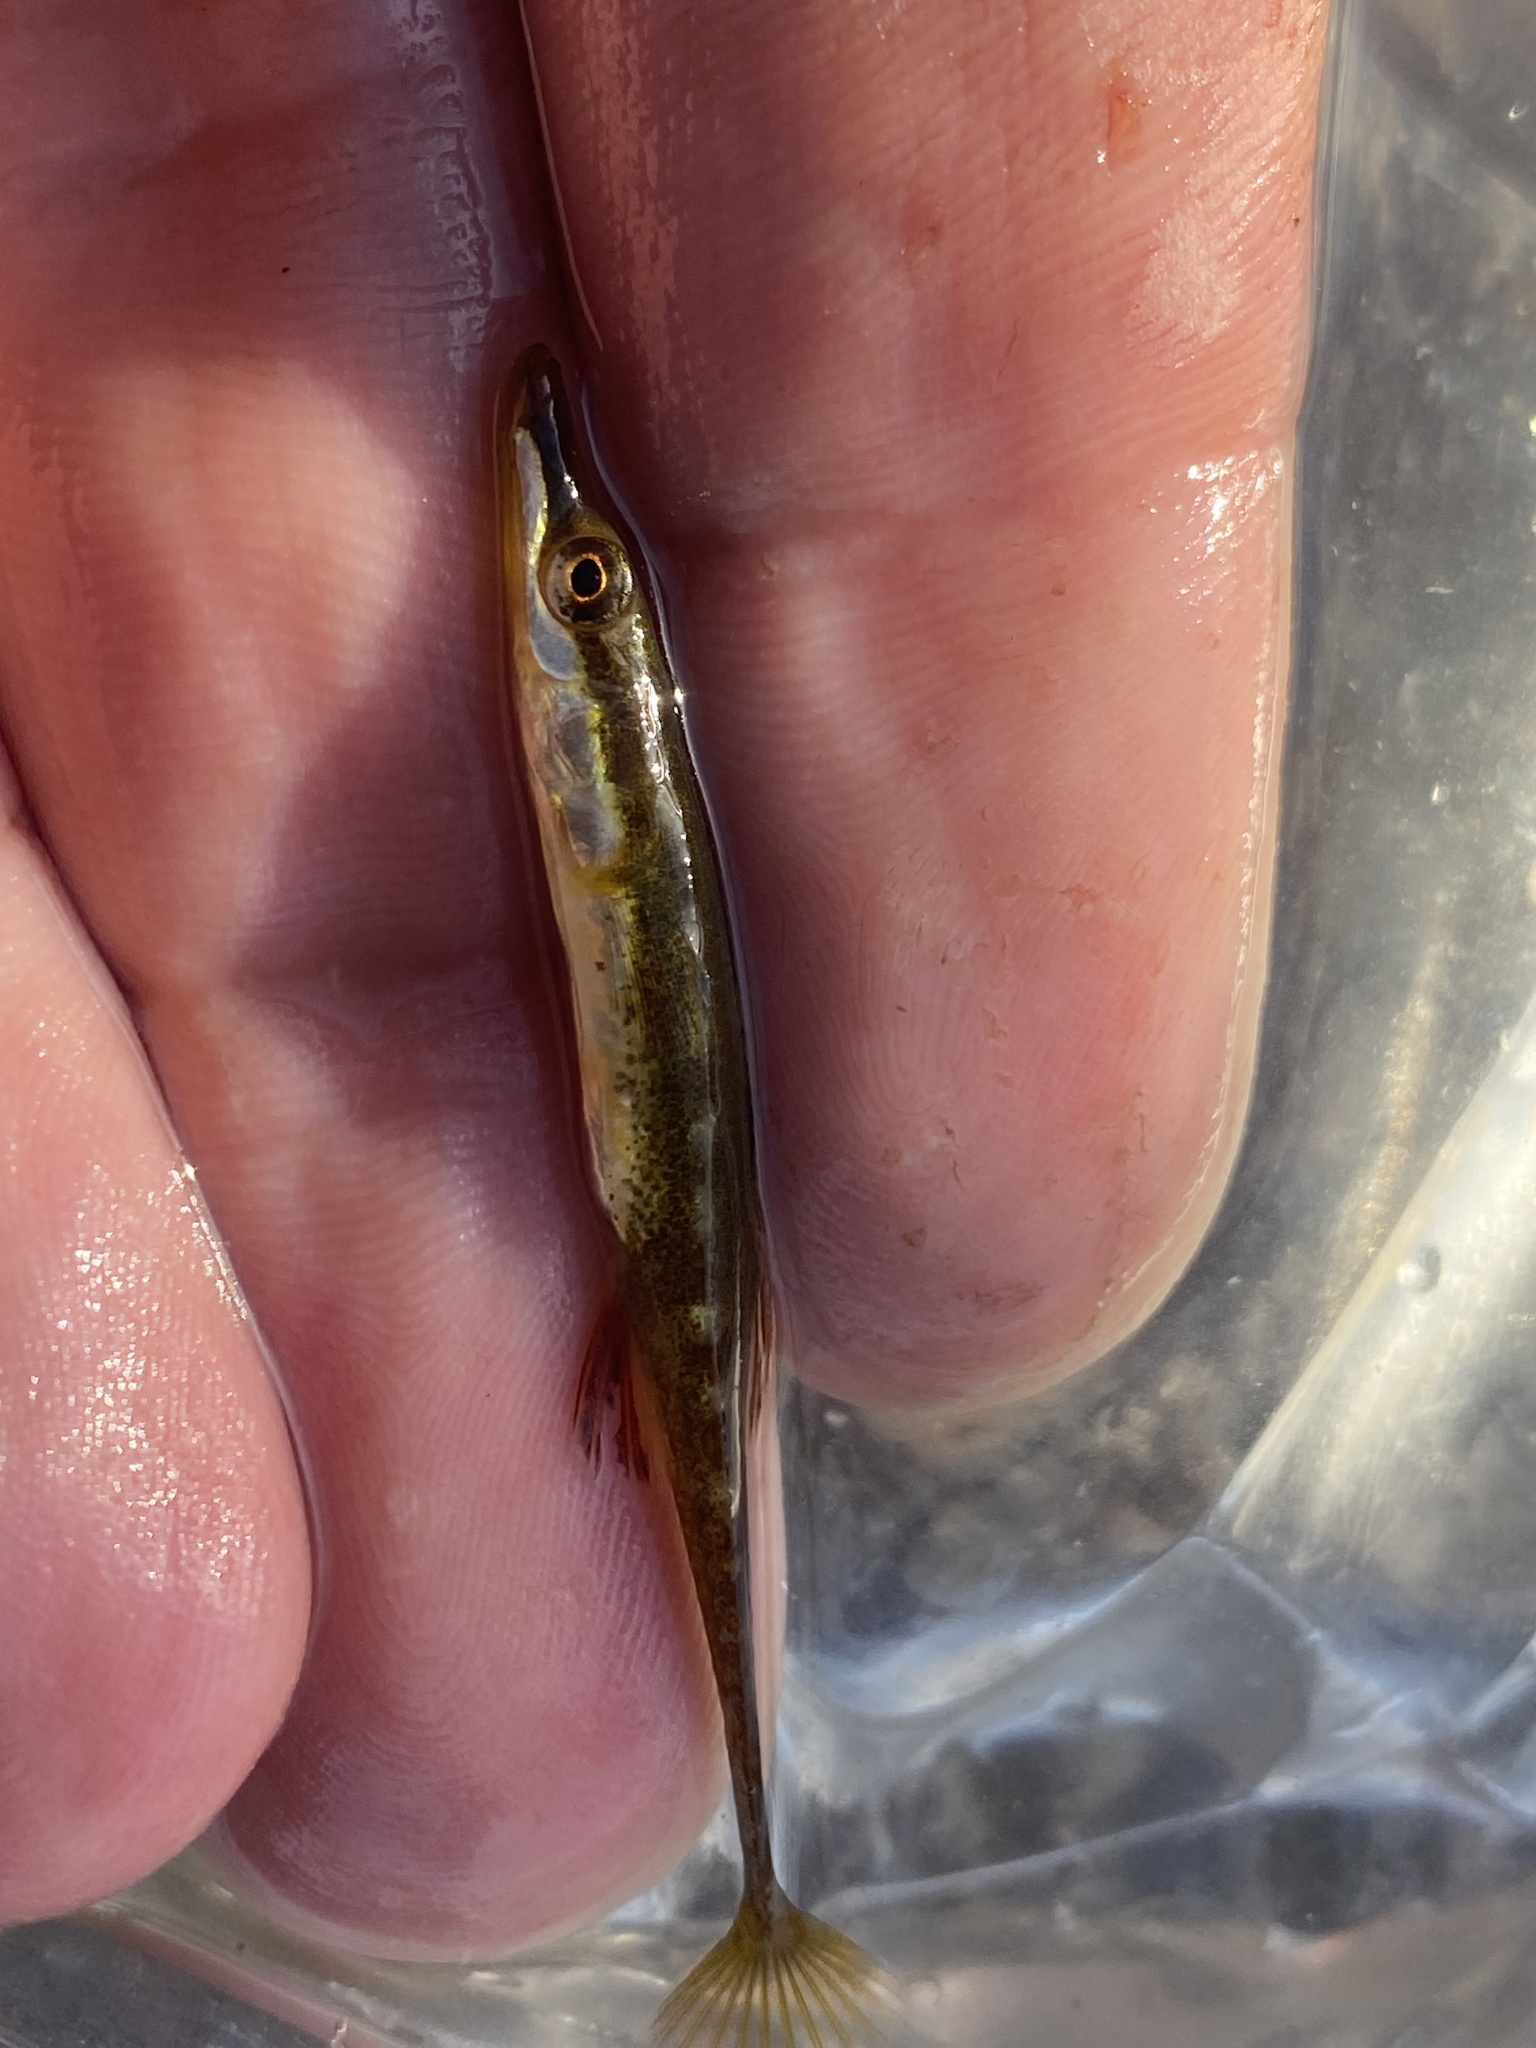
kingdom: Animalia
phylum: Chordata
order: Gasterosteiformes
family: Gasterosteidae
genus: Spinachia
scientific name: Spinachia spinachia
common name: Fifteen-spined stickleback
